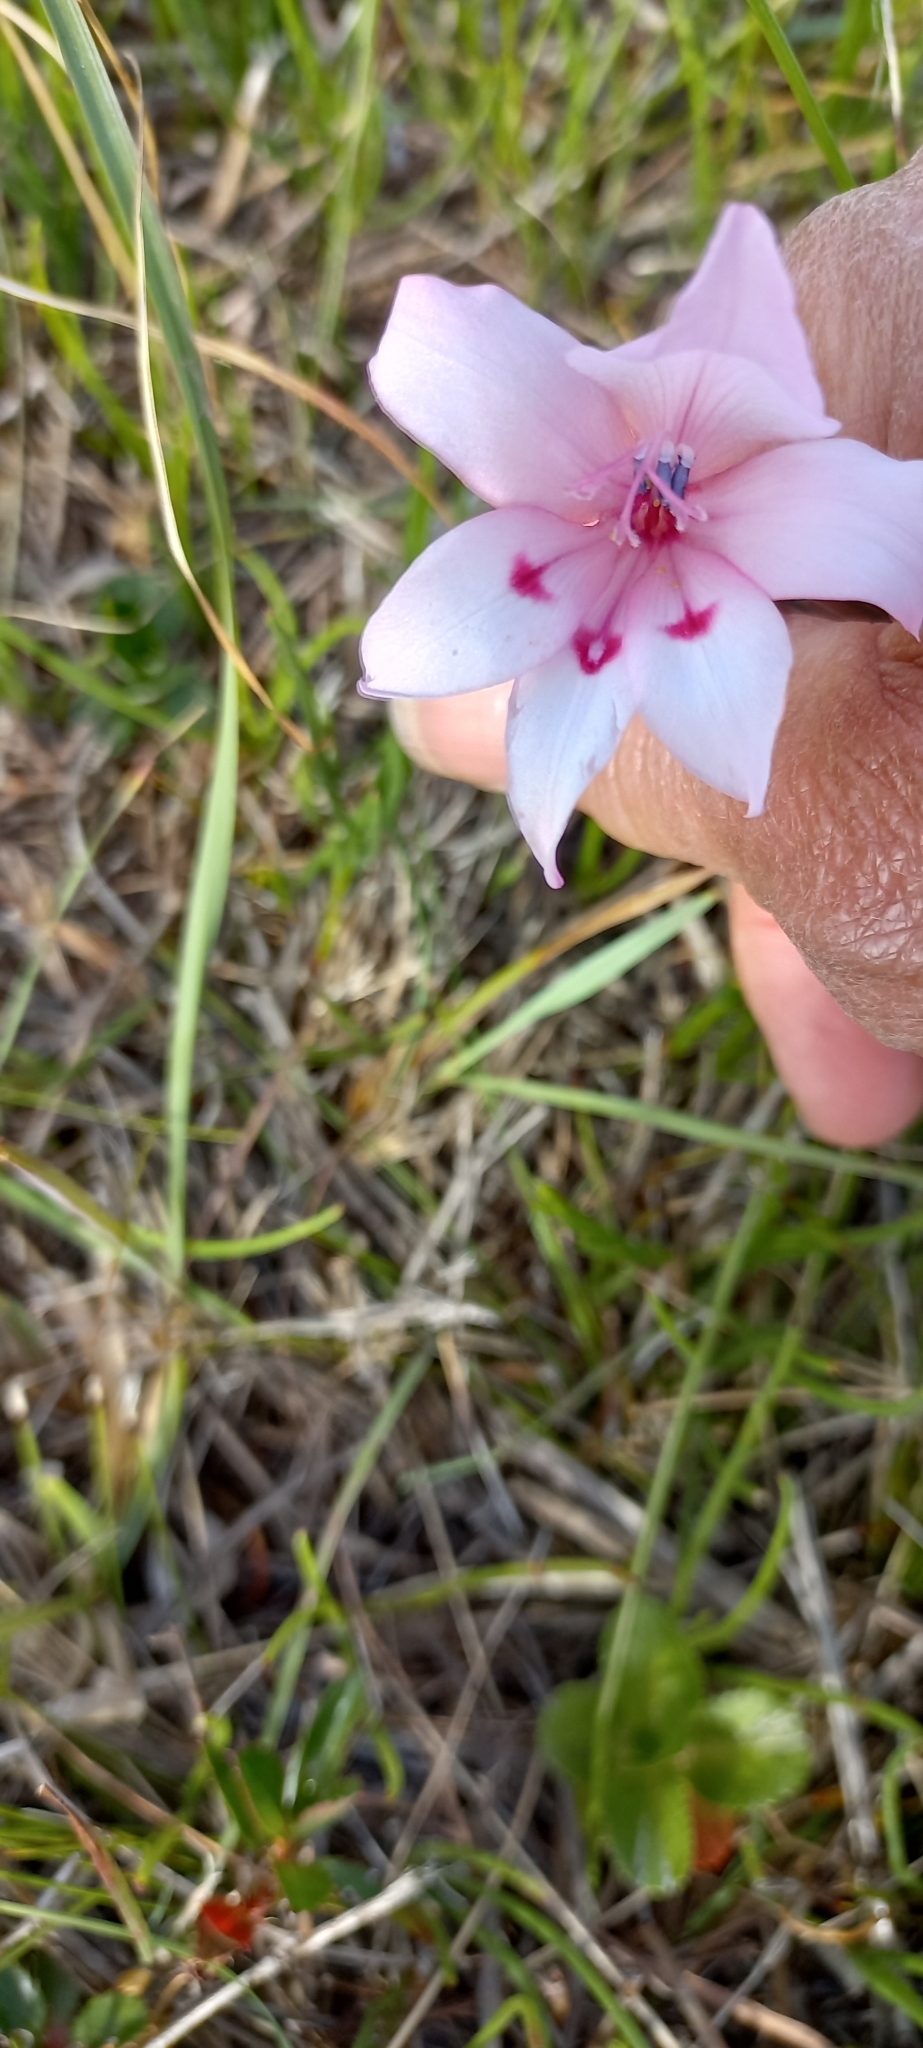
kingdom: Plantae
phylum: Tracheophyta
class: Liliopsida
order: Asparagales
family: Iridaceae
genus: Gladiolus
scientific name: Gladiolus carneus
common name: Painted-lady
